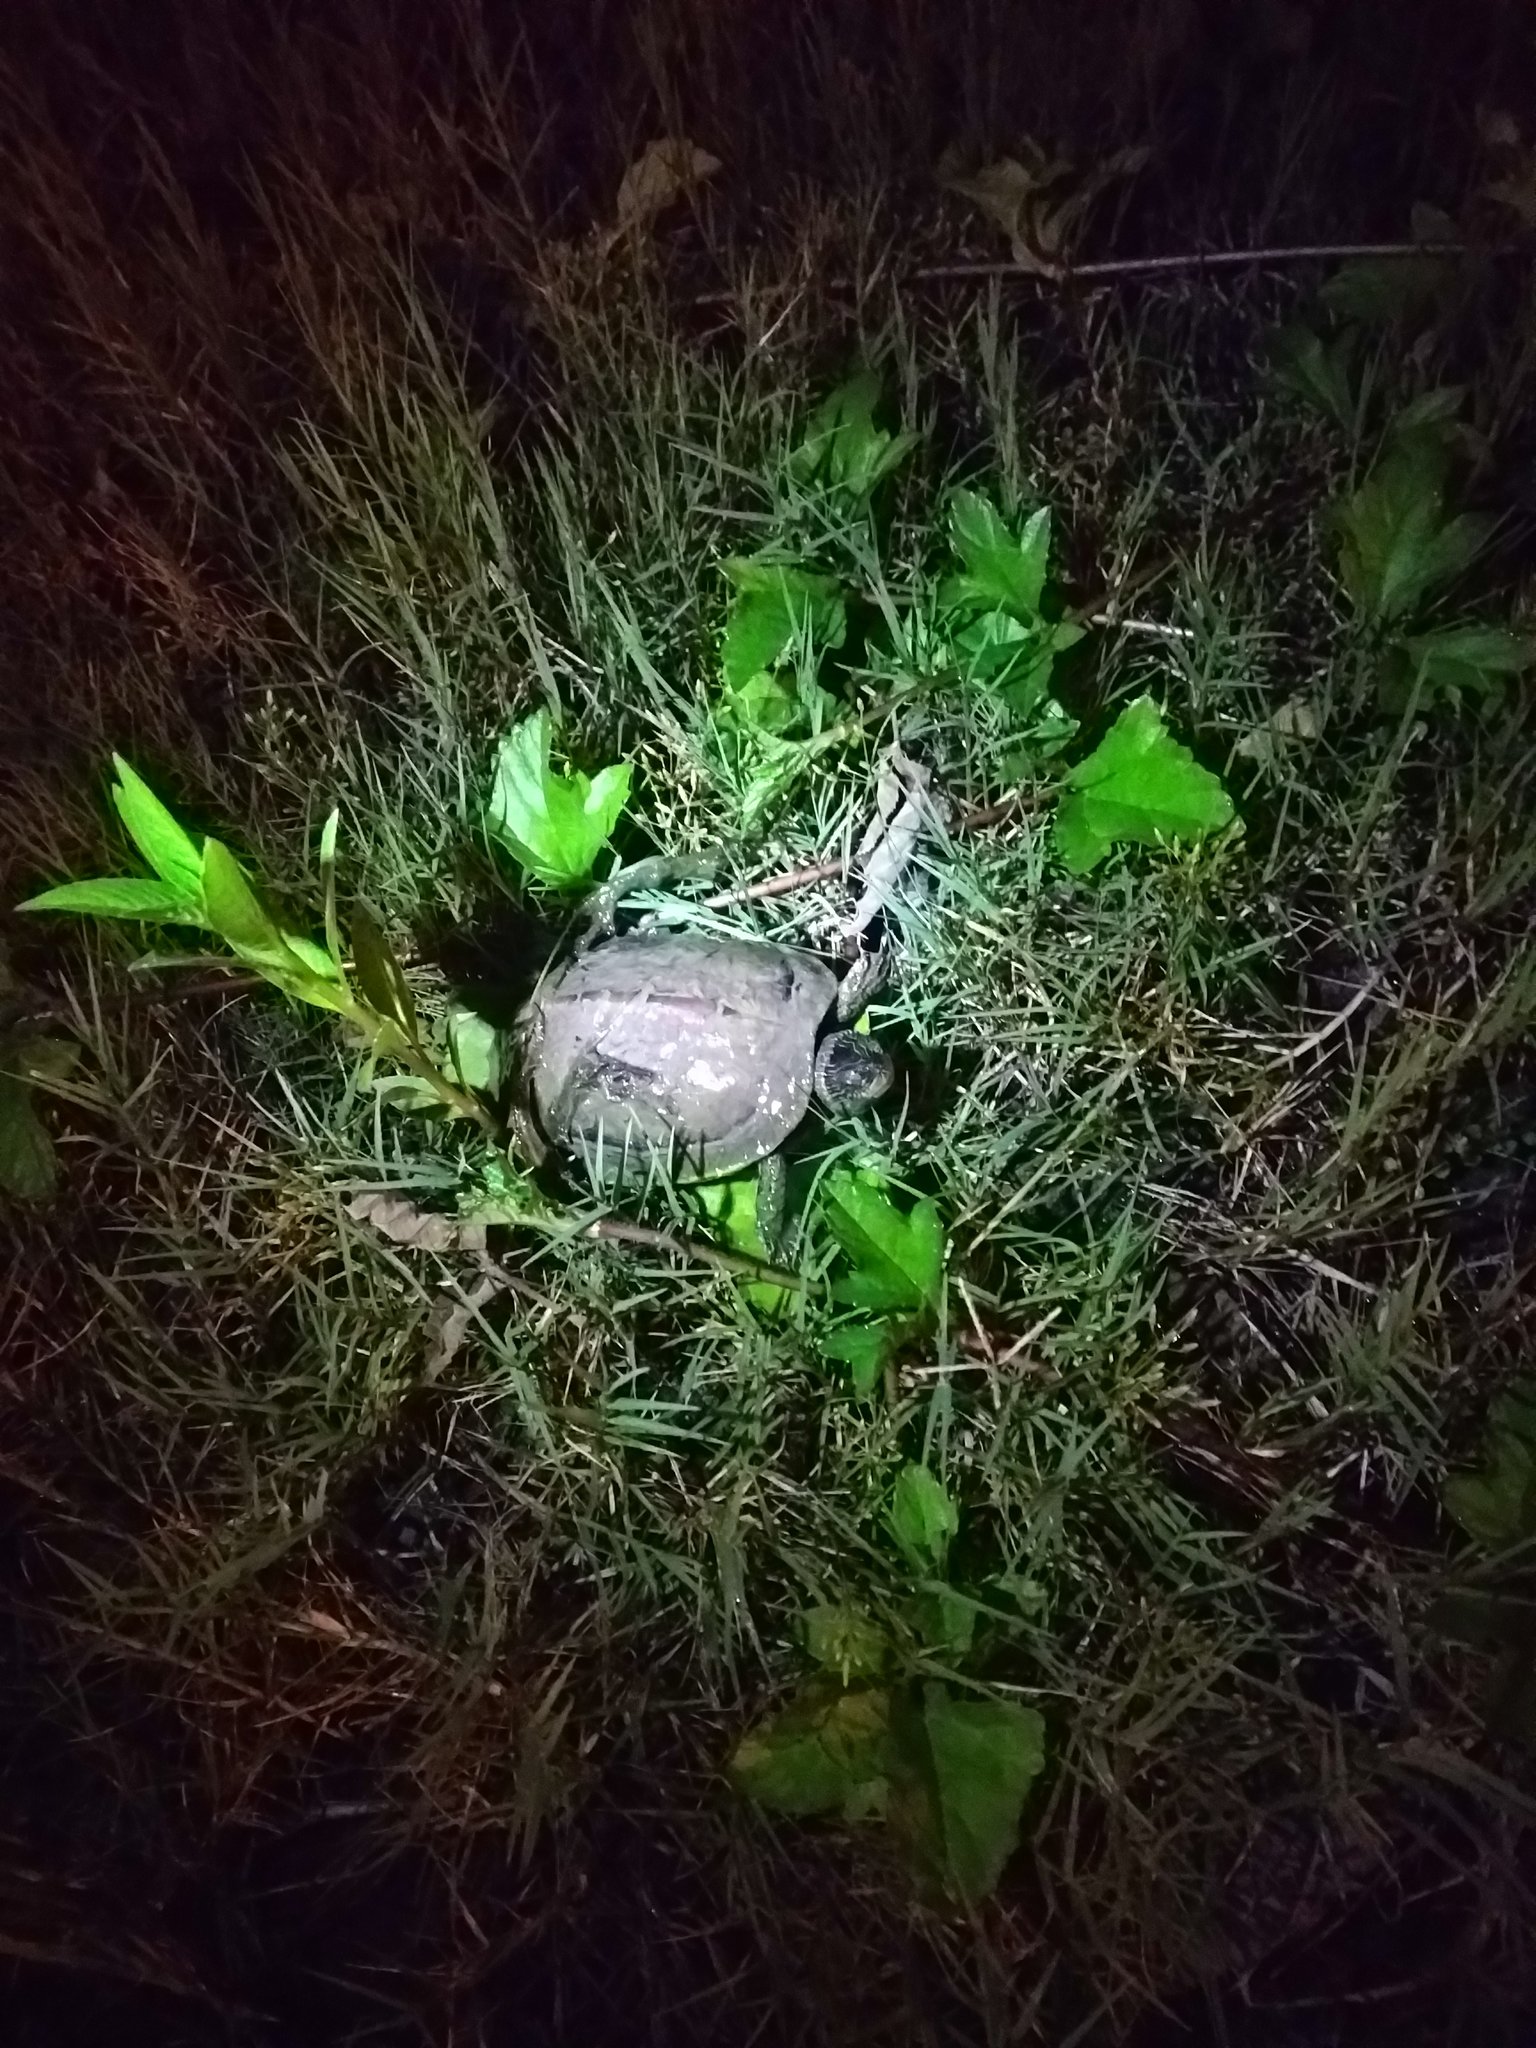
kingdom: Animalia
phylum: Chordata
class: Testudines
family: Geoemydidae
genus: Mauremys
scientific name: Mauremys sinensis
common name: Chinese stripe-necked turtle
